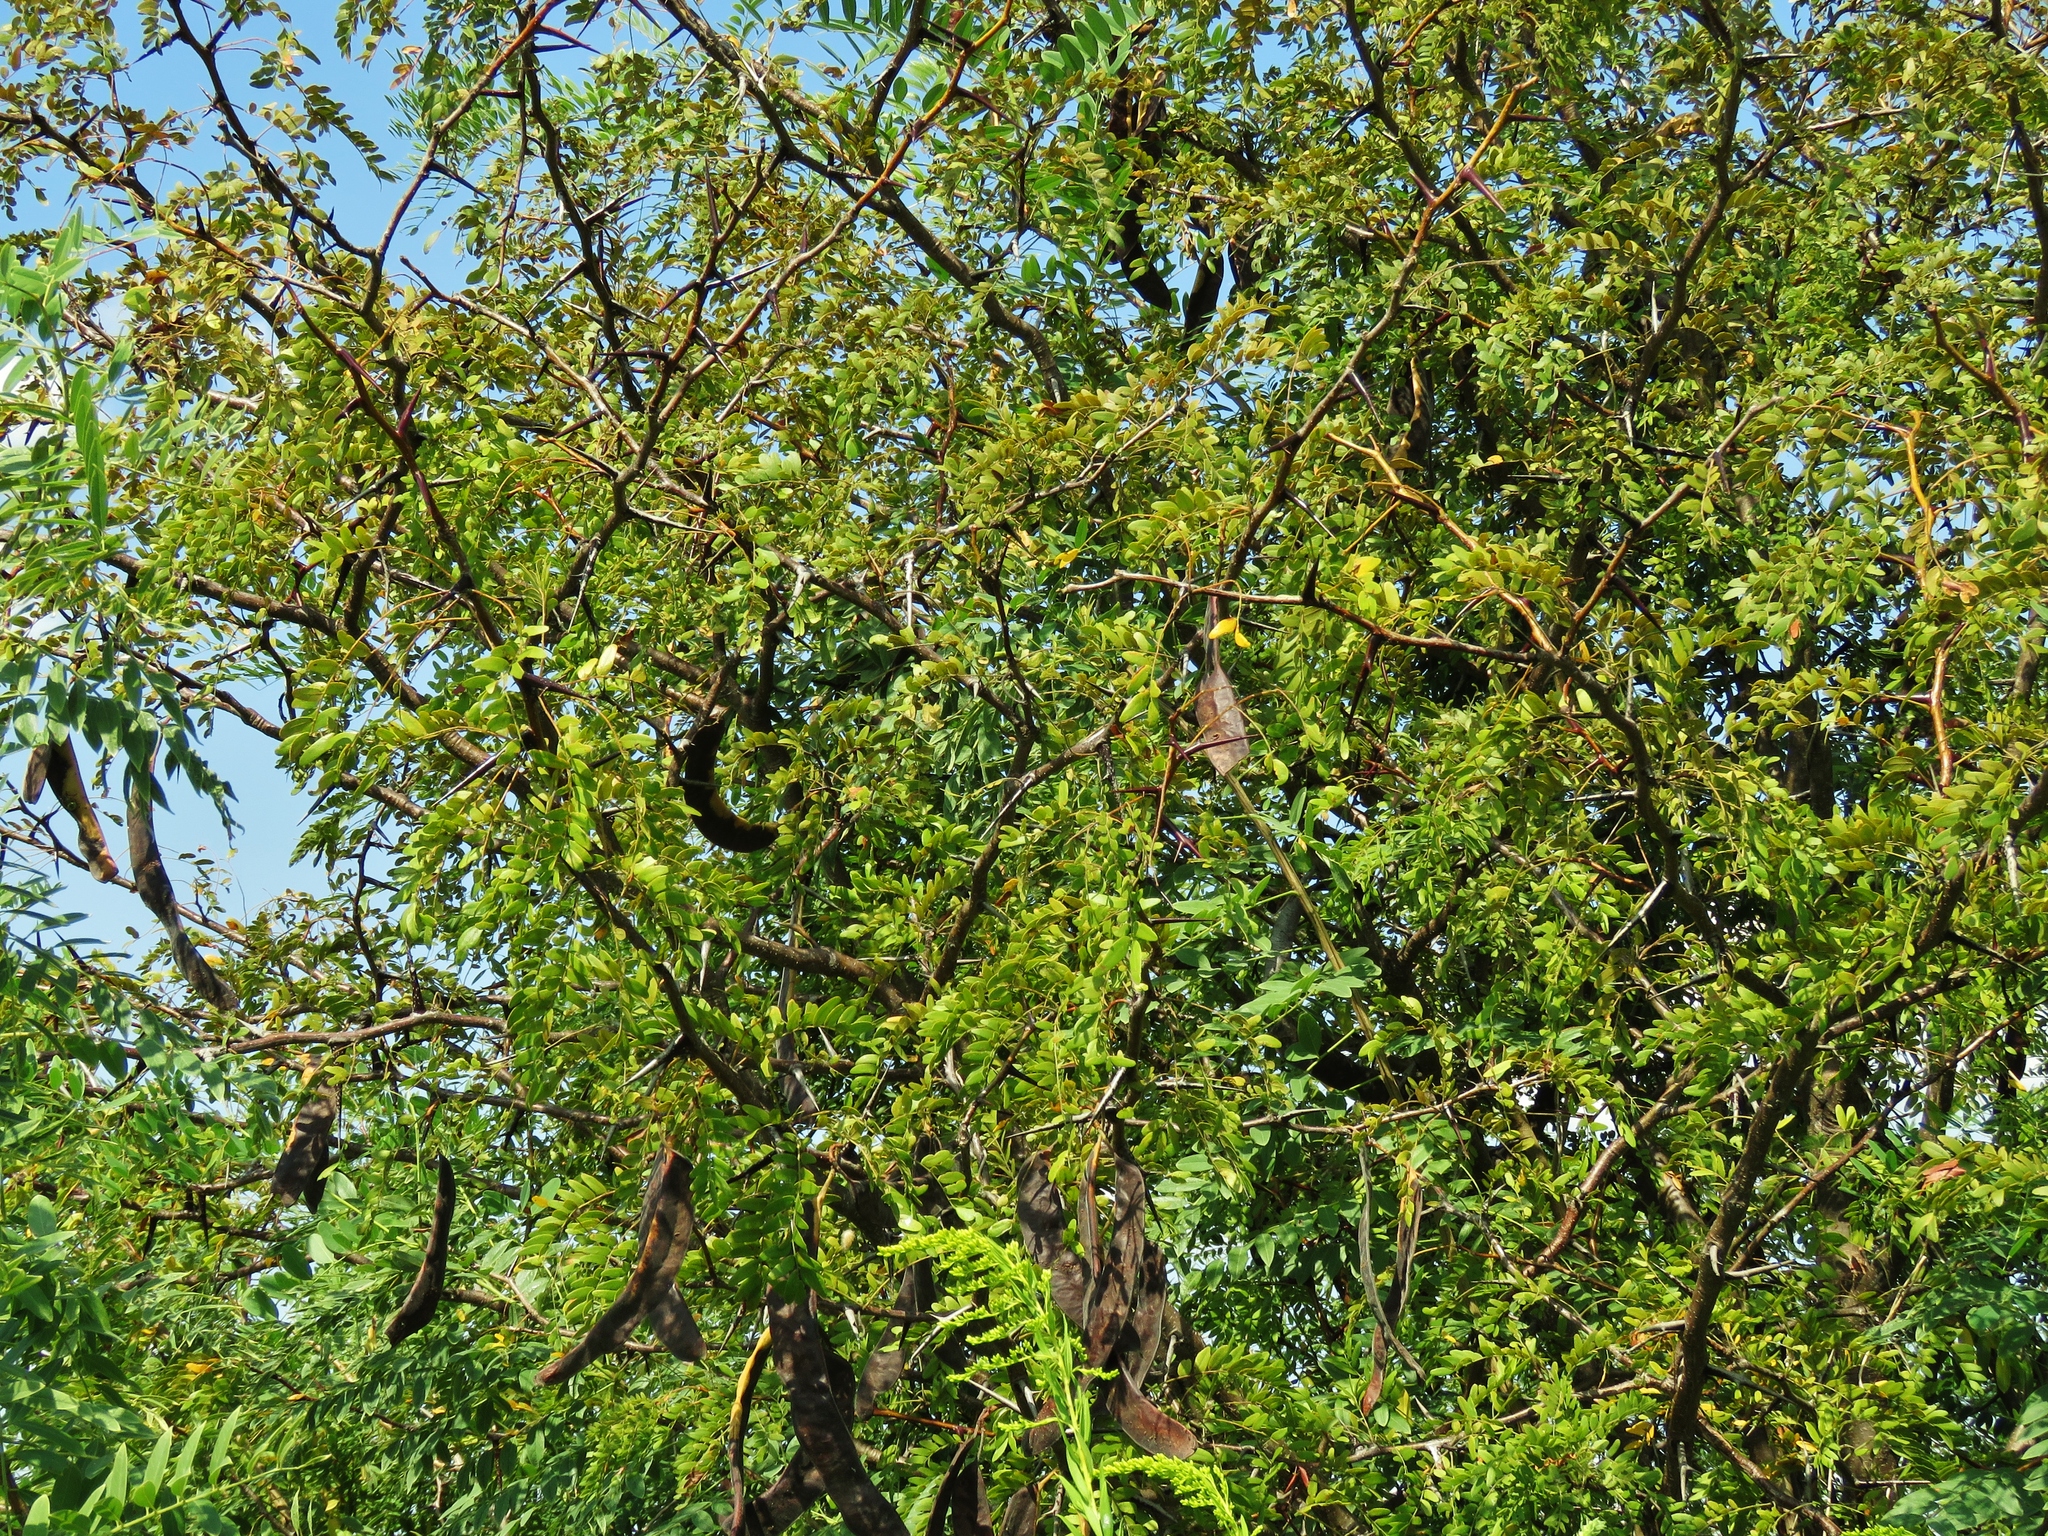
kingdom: Plantae
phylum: Tracheophyta
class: Magnoliopsida
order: Fabales
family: Fabaceae
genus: Gleditsia
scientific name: Gleditsia triacanthos
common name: Common honeylocust
